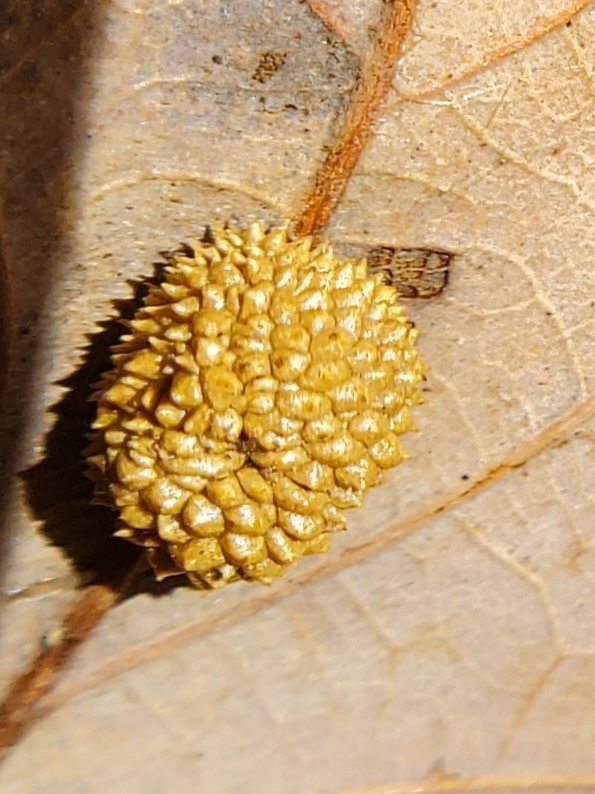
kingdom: Animalia
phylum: Arthropoda
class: Insecta
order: Hymenoptera
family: Cynipidae
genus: Acraspis
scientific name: Acraspis
